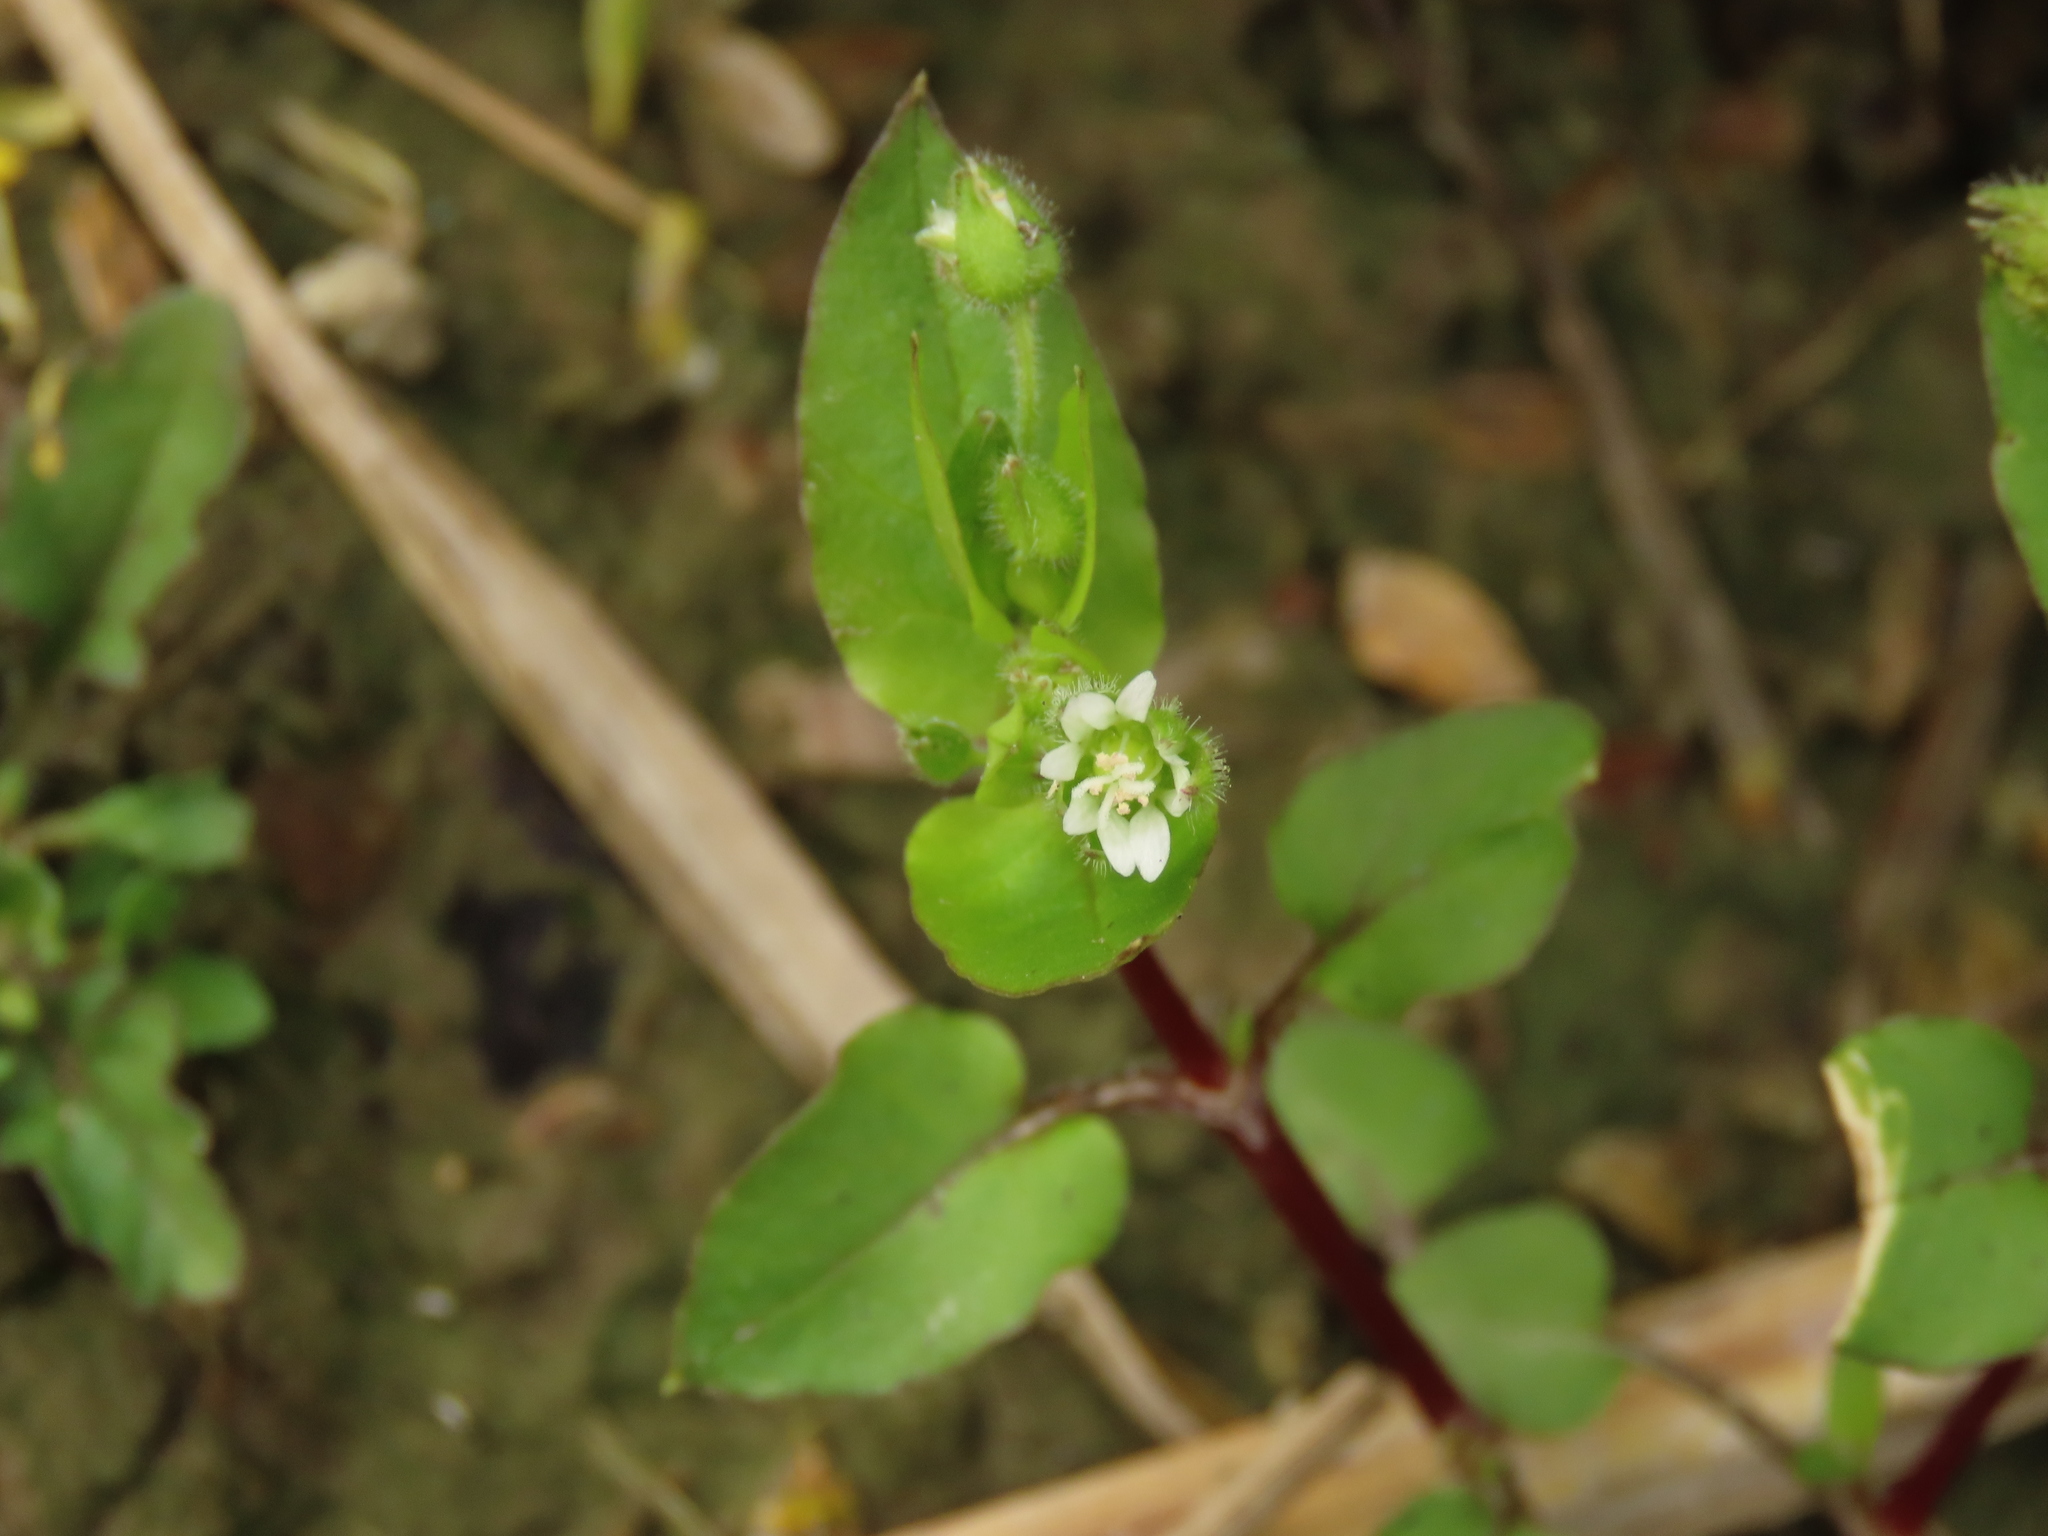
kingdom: Plantae
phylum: Tracheophyta
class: Magnoliopsida
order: Caryophyllales
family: Caryophyllaceae
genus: Stellaria
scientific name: Stellaria aquatica
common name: Water chickweed
